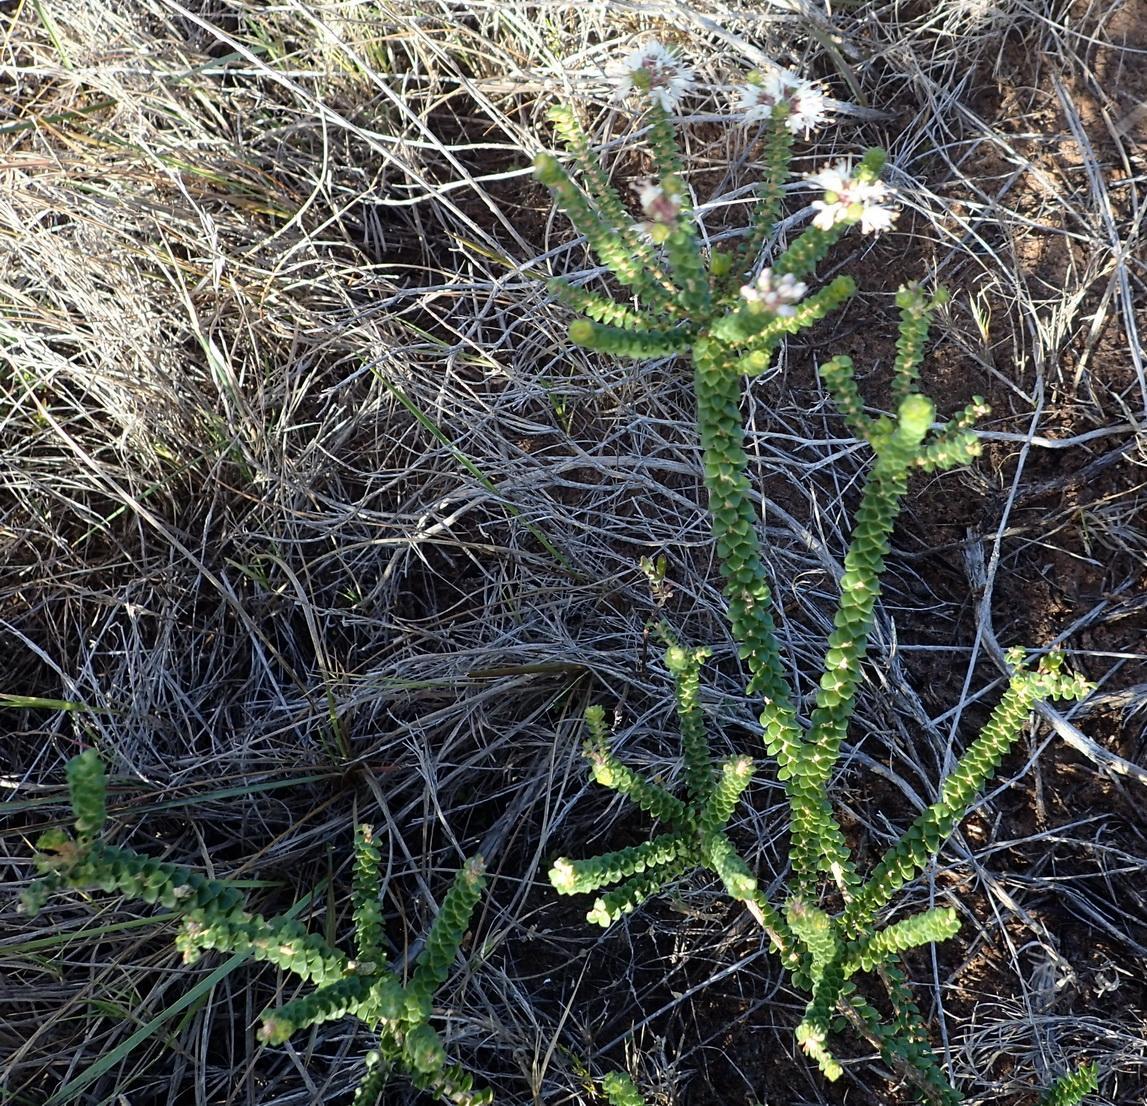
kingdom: Plantae
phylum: Tracheophyta
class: Magnoliopsida
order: Sapindales
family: Rutaceae
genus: Agathosma
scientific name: Agathosma muirii
